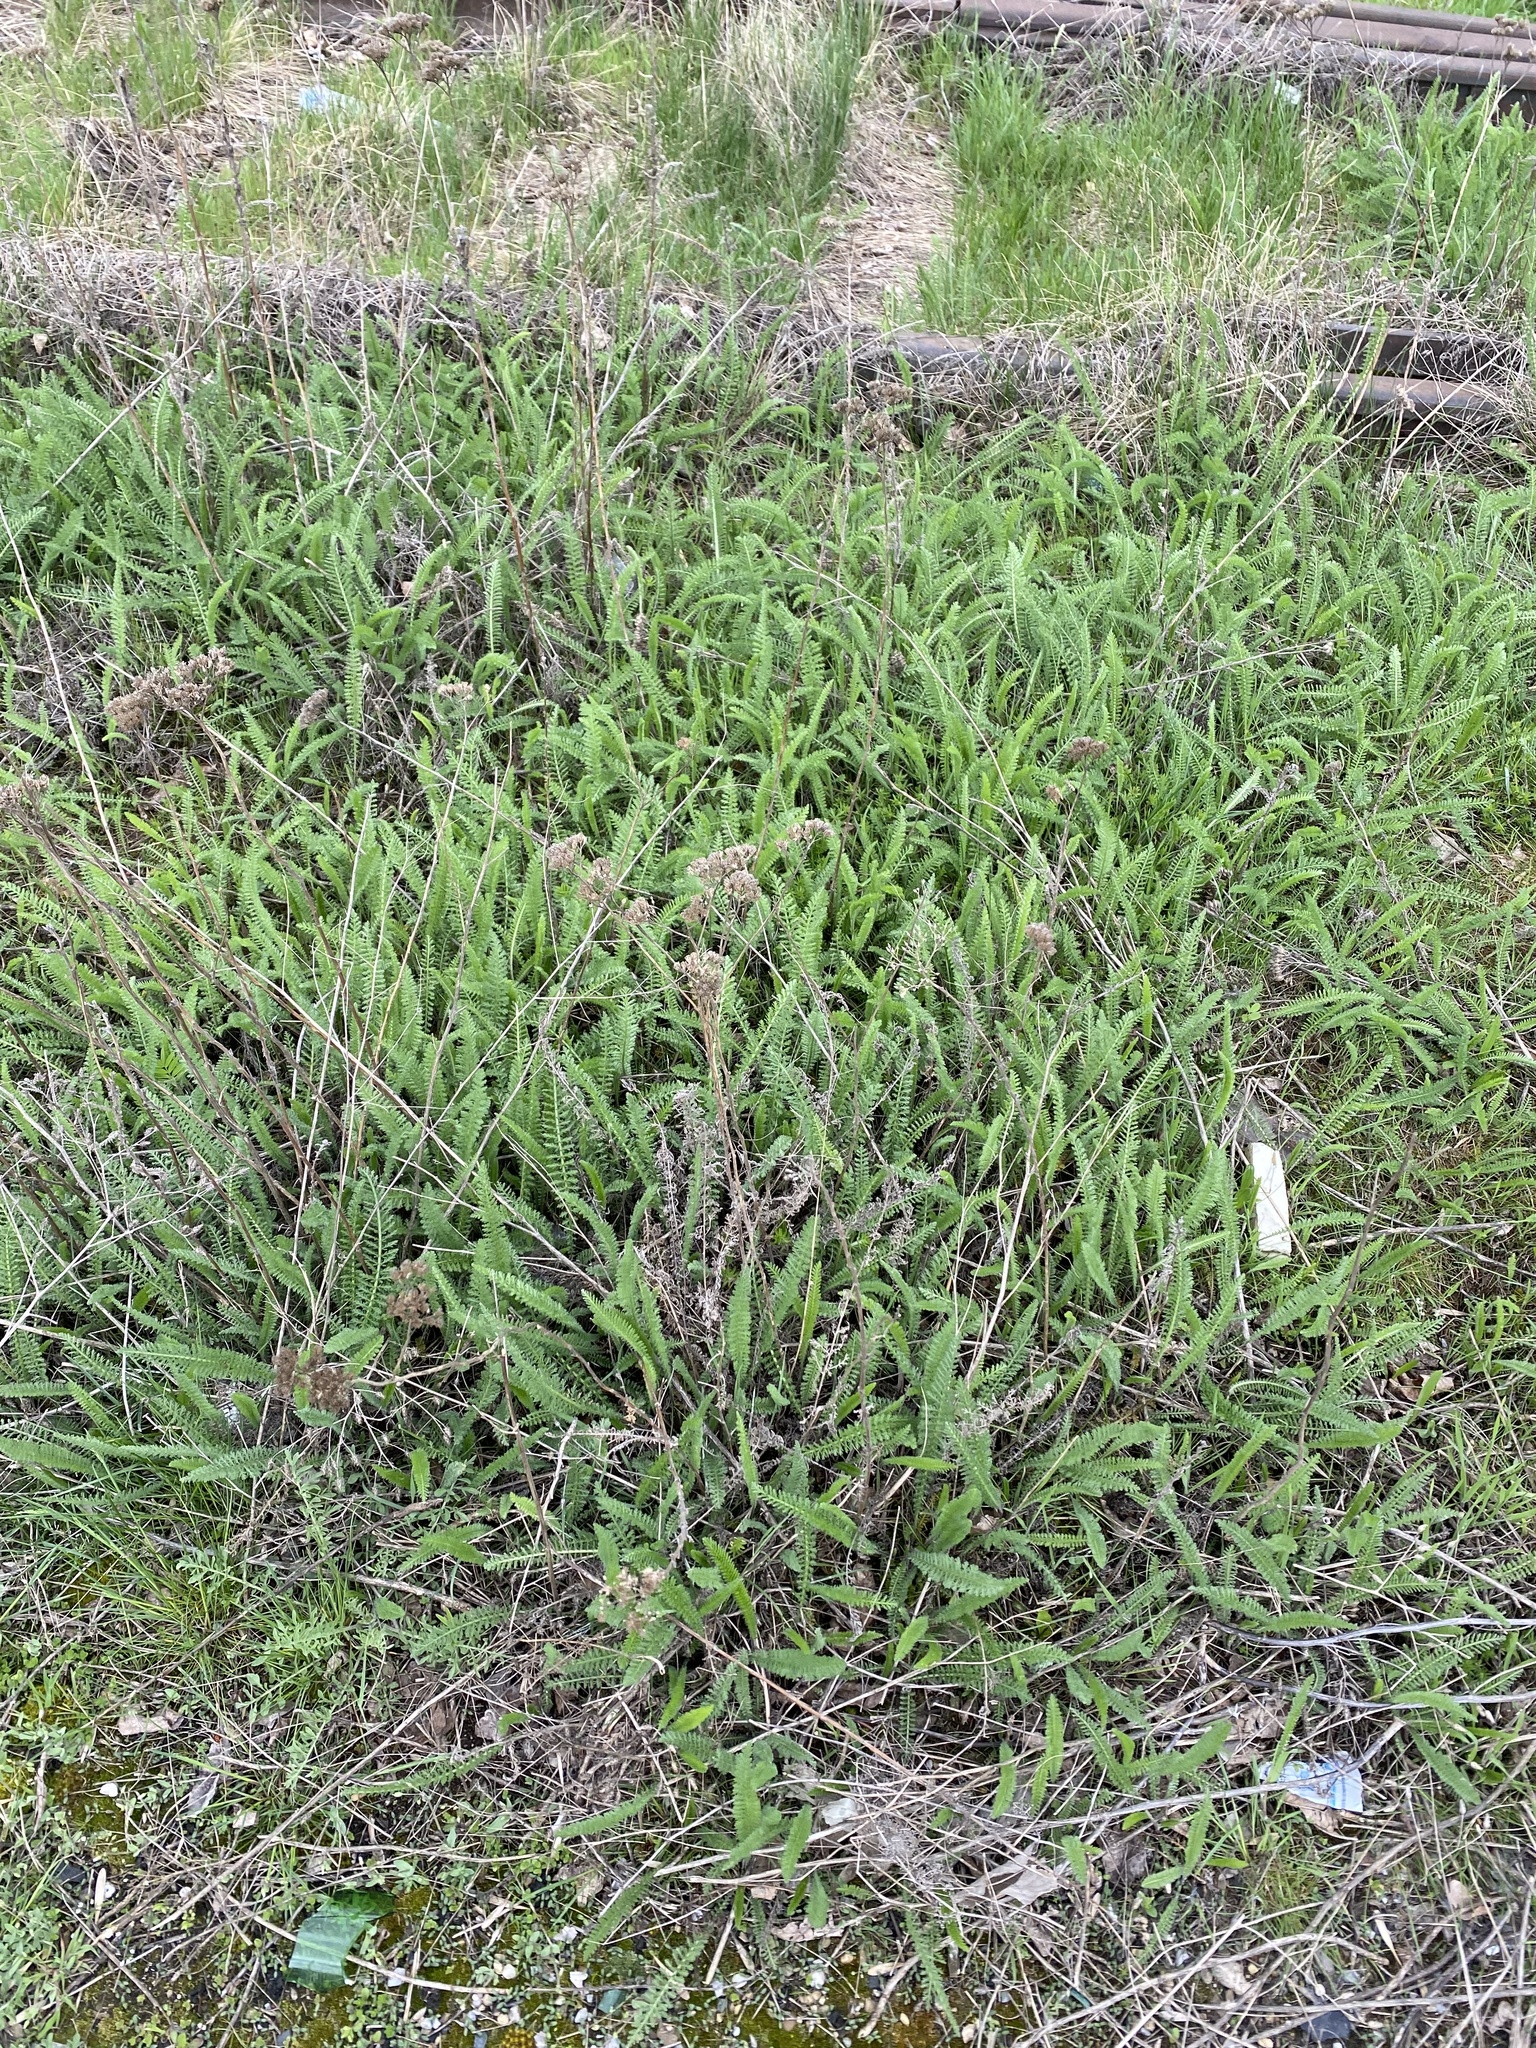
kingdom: Plantae
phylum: Tracheophyta
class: Magnoliopsida
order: Asterales
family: Asteraceae
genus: Achillea
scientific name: Achillea millefolium
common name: Yarrow
